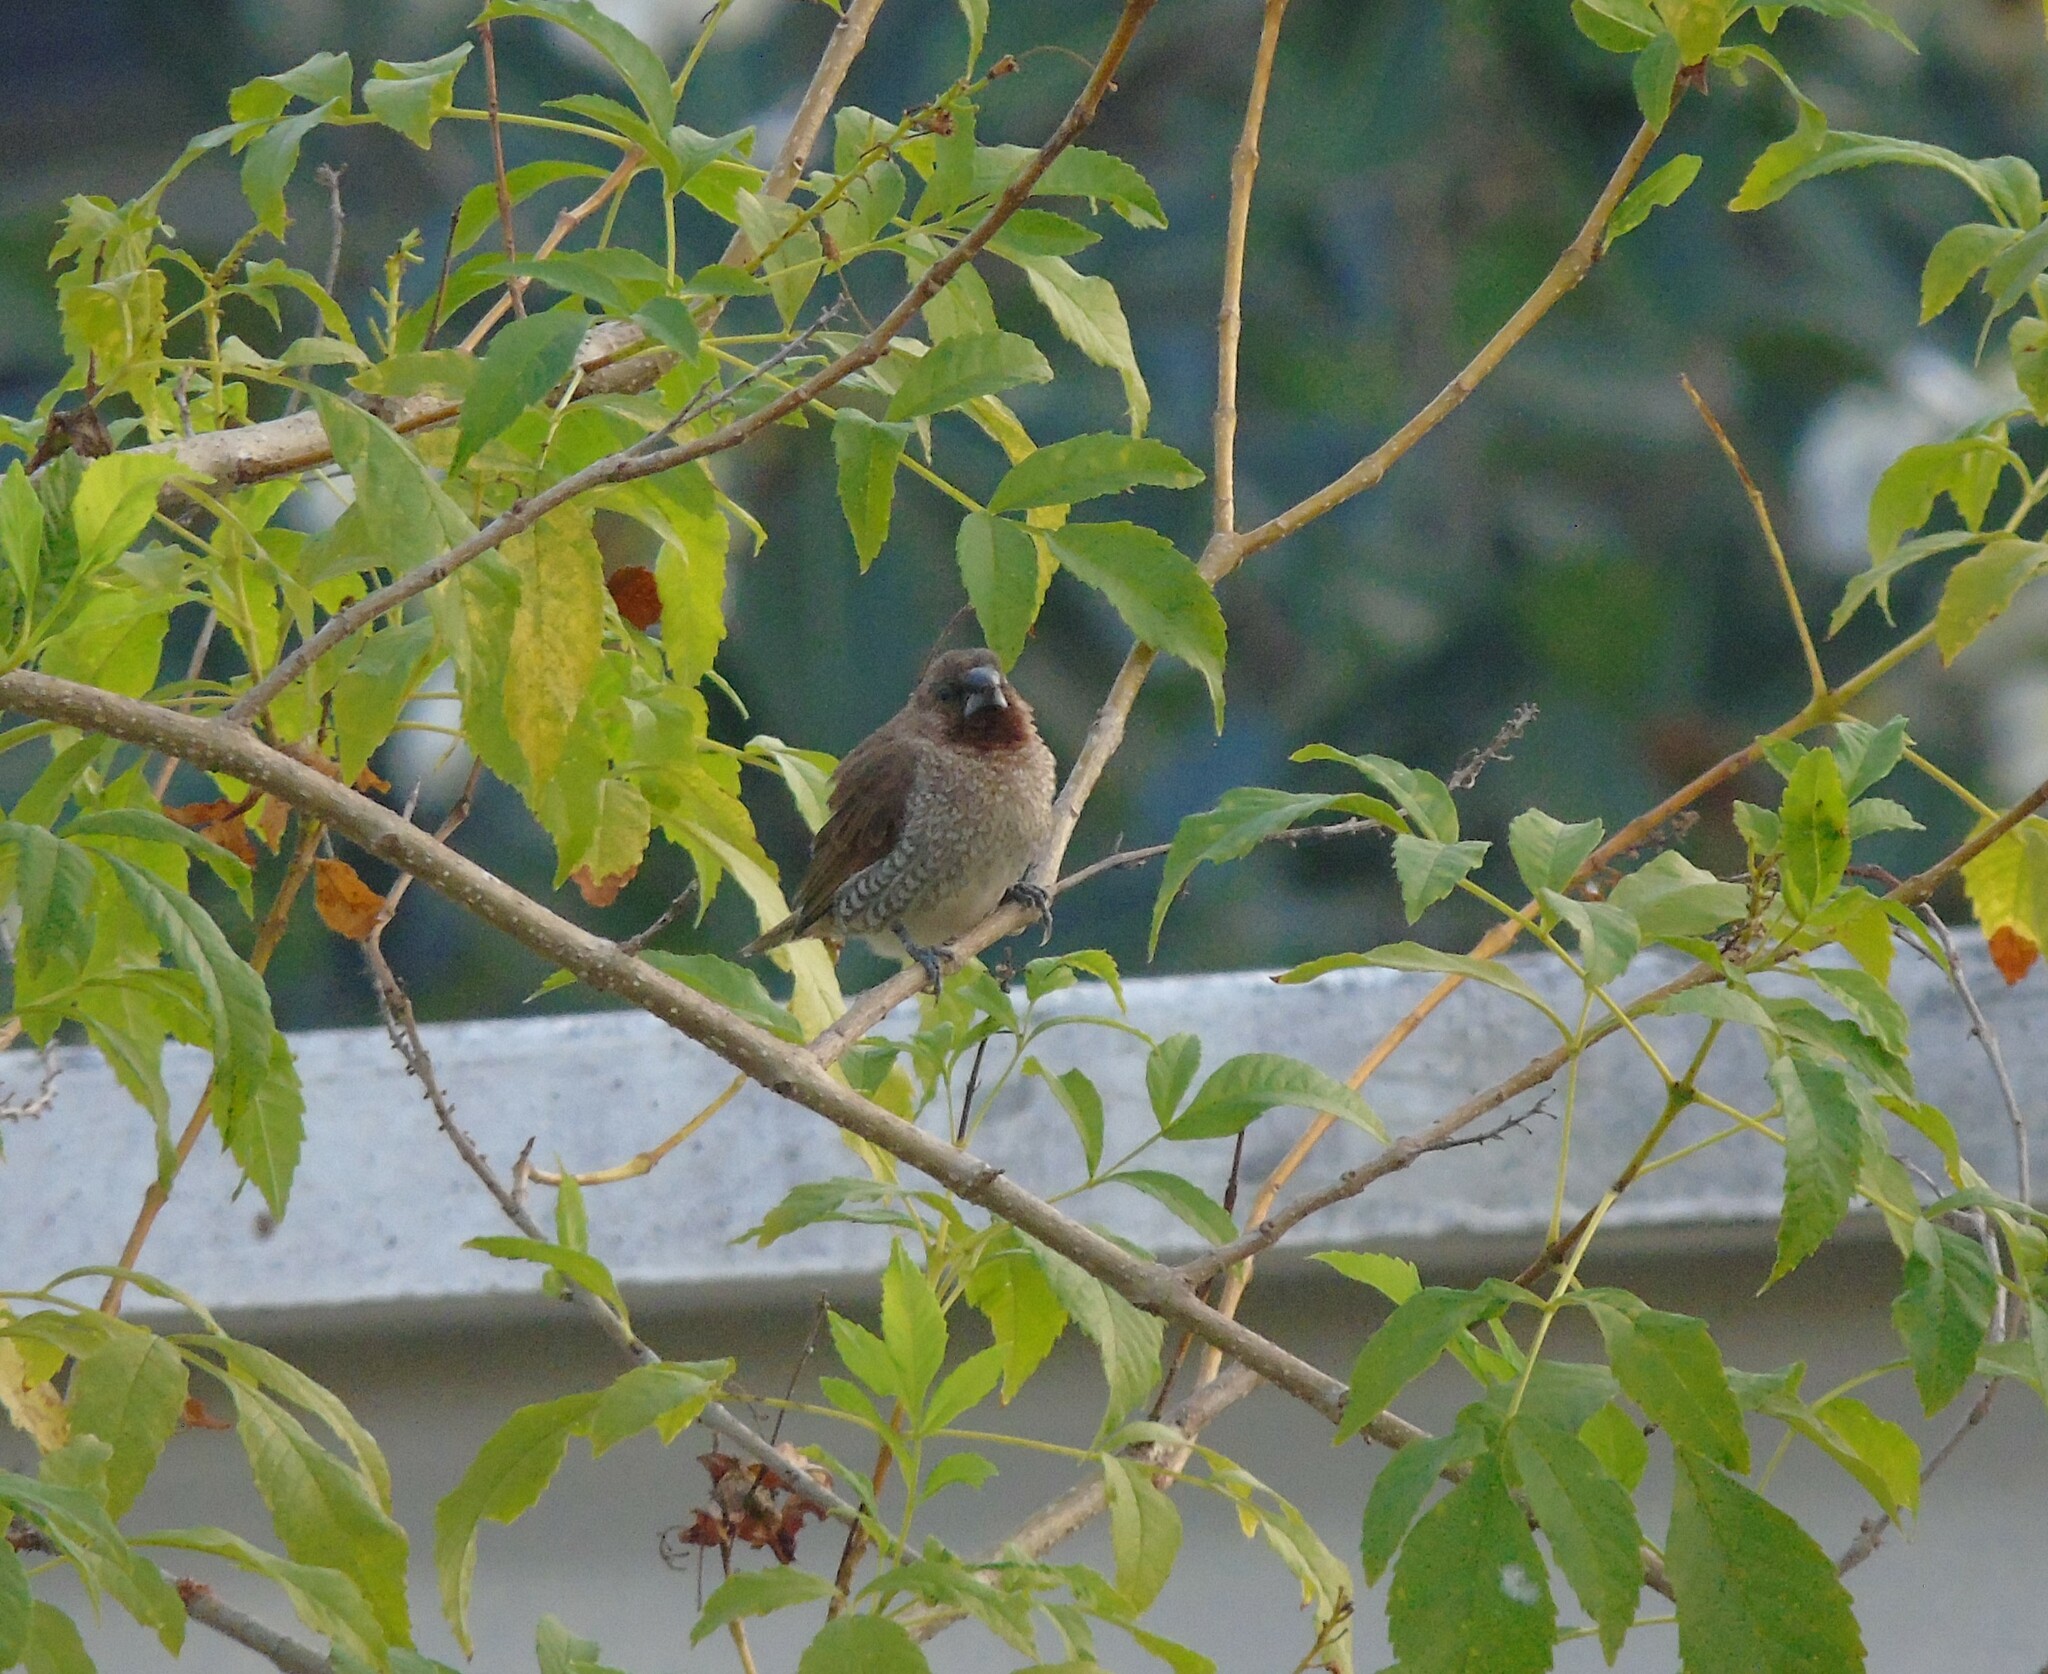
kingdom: Animalia
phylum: Chordata
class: Aves
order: Passeriformes
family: Estrildidae
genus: Lonchura
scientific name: Lonchura punctulata
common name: Scaly-breasted munia
